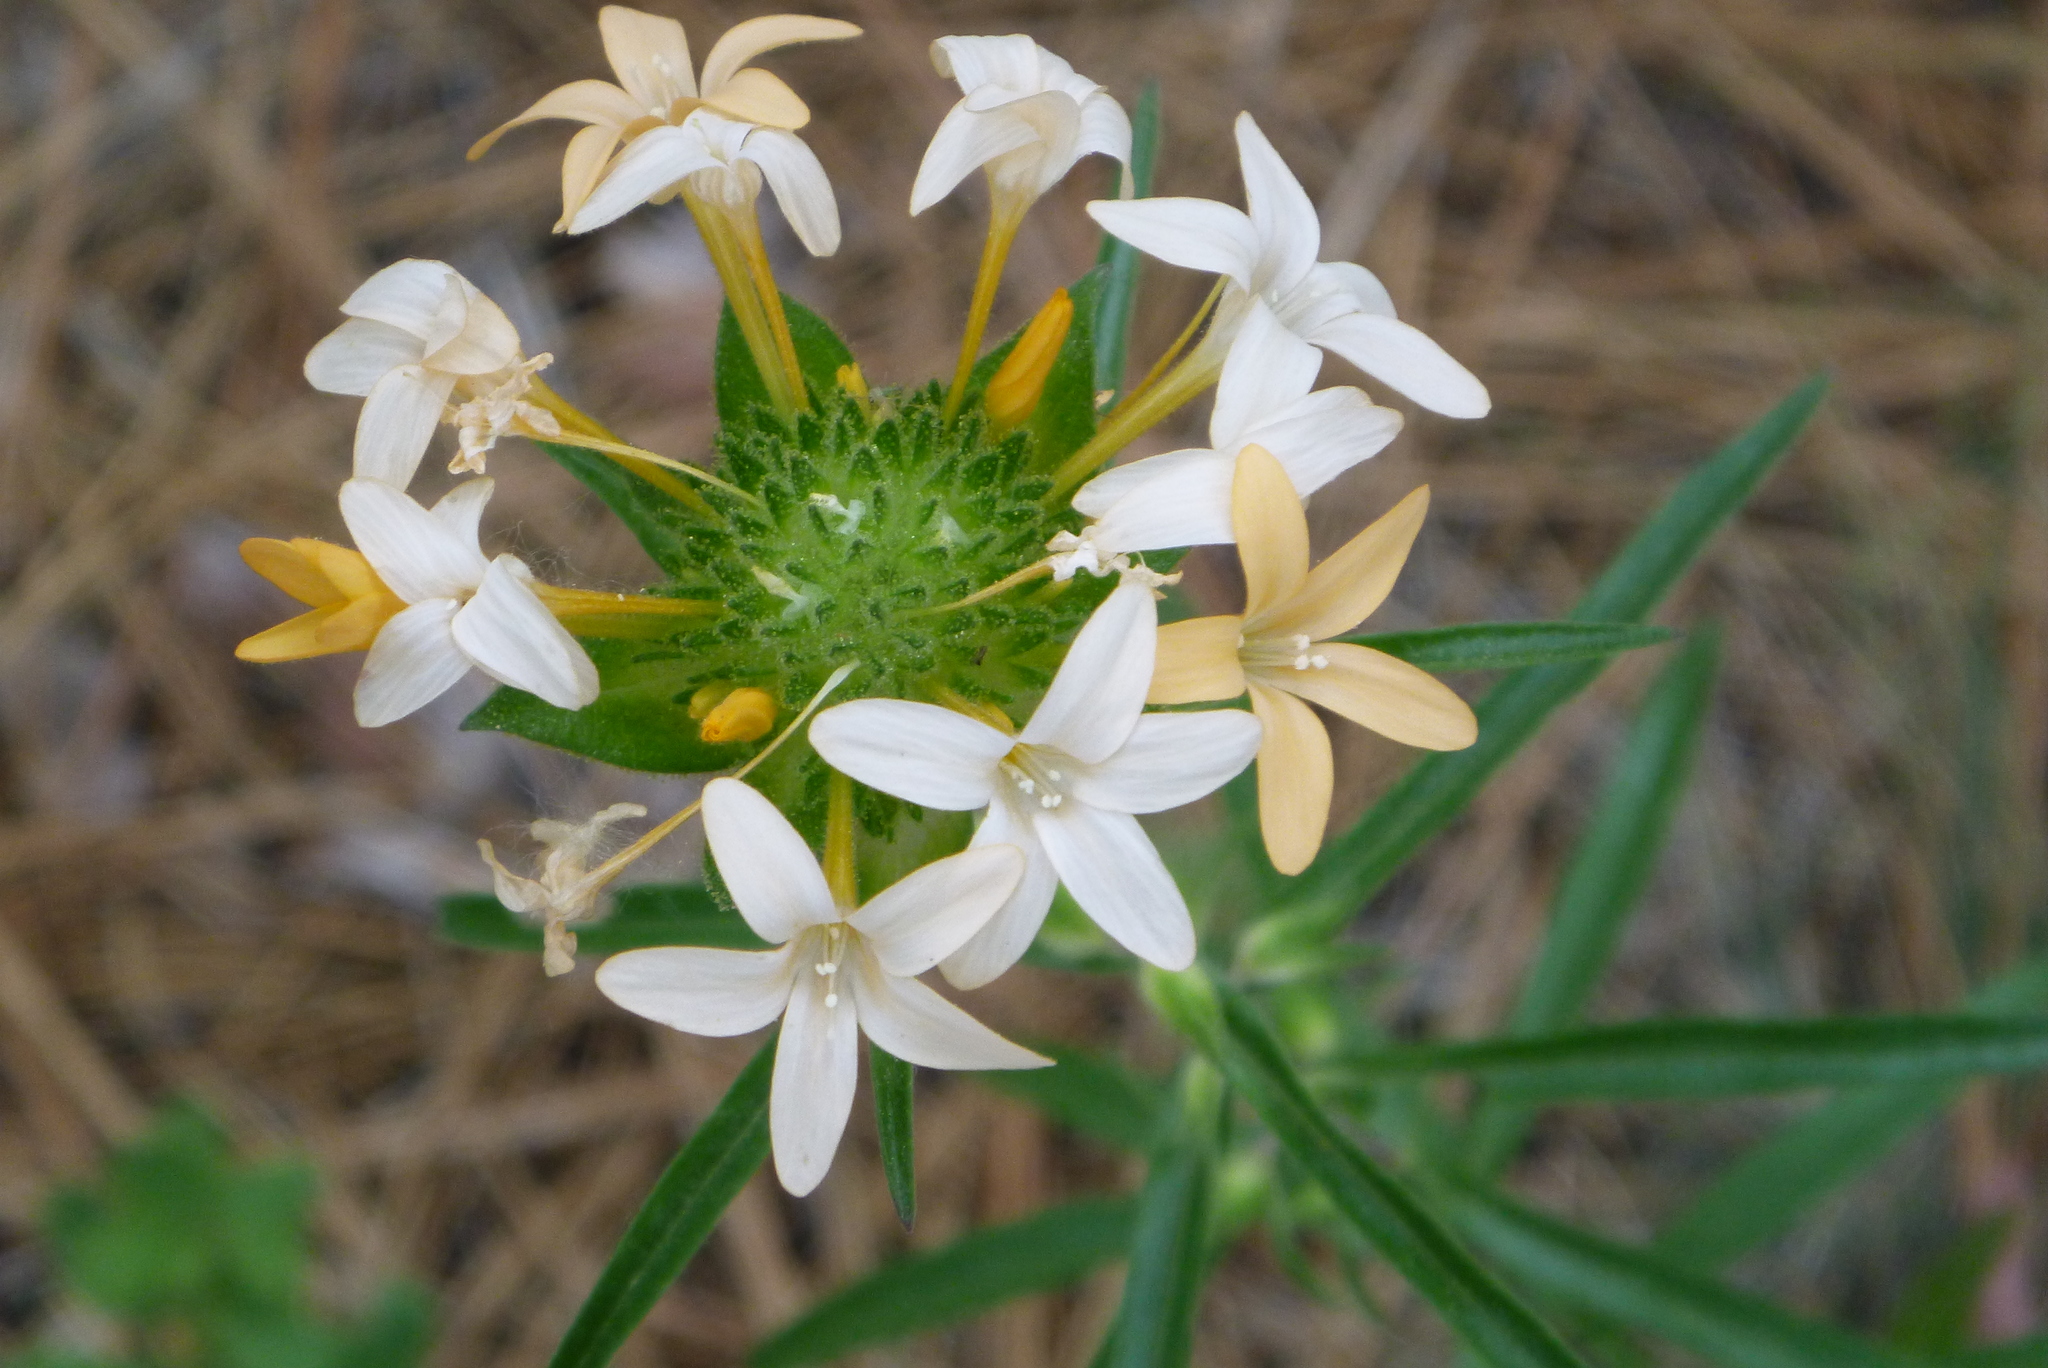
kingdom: Plantae
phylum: Tracheophyta
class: Magnoliopsida
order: Ericales
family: Polemoniaceae
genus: Collomia
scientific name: Collomia grandiflora
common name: California strawflower
